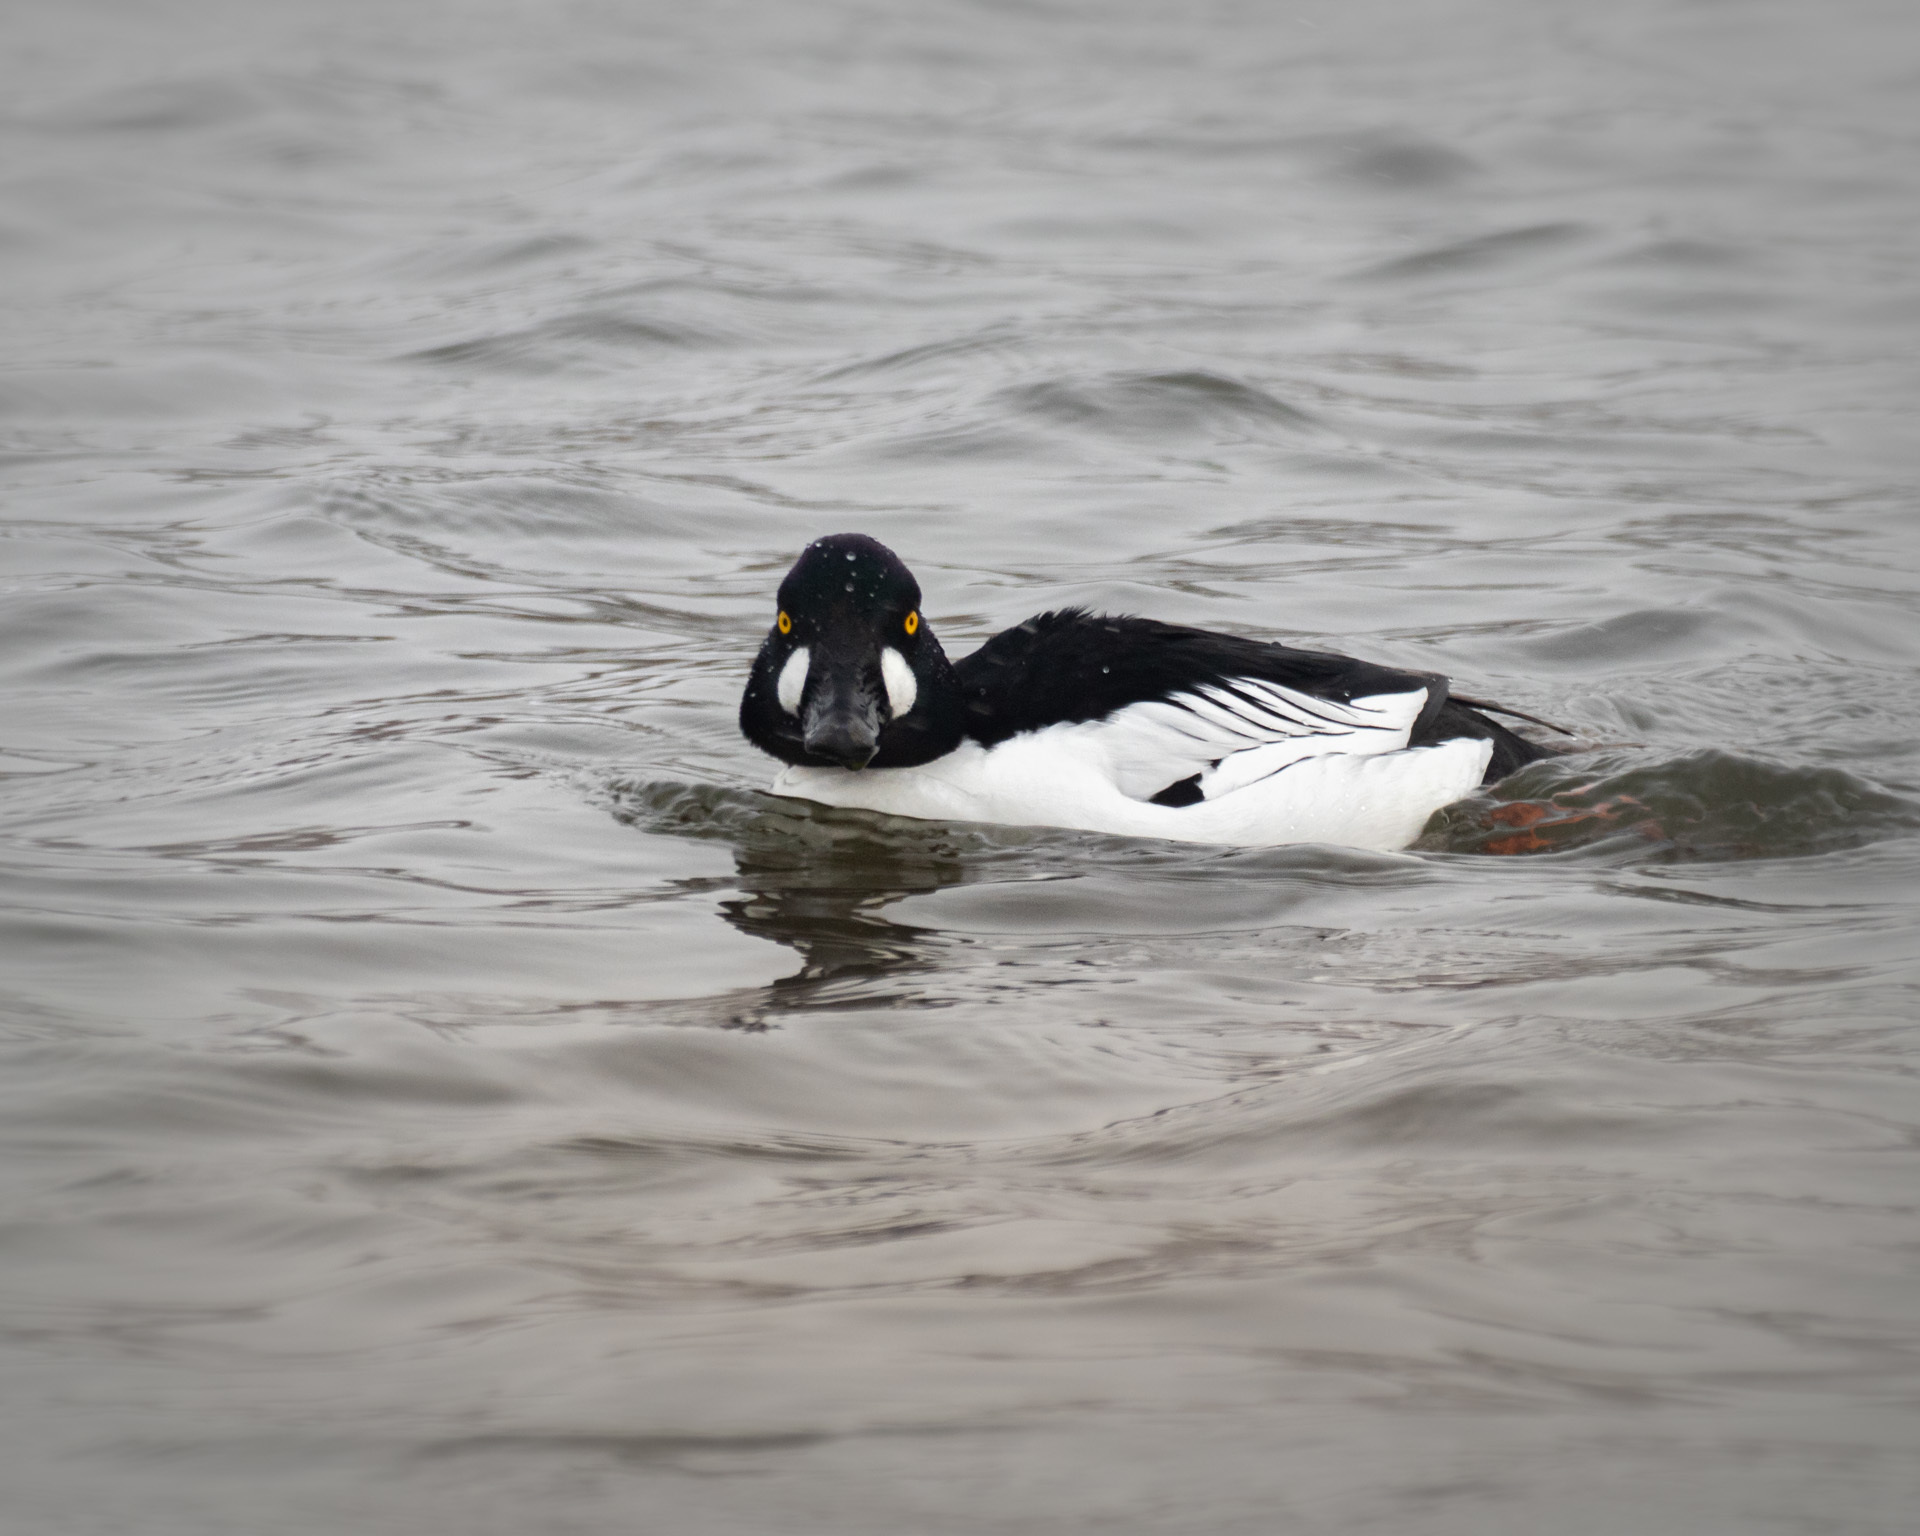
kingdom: Animalia
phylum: Chordata
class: Aves
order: Anseriformes
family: Anatidae
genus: Bucephala
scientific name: Bucephala clangula
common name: Common goldeneye
